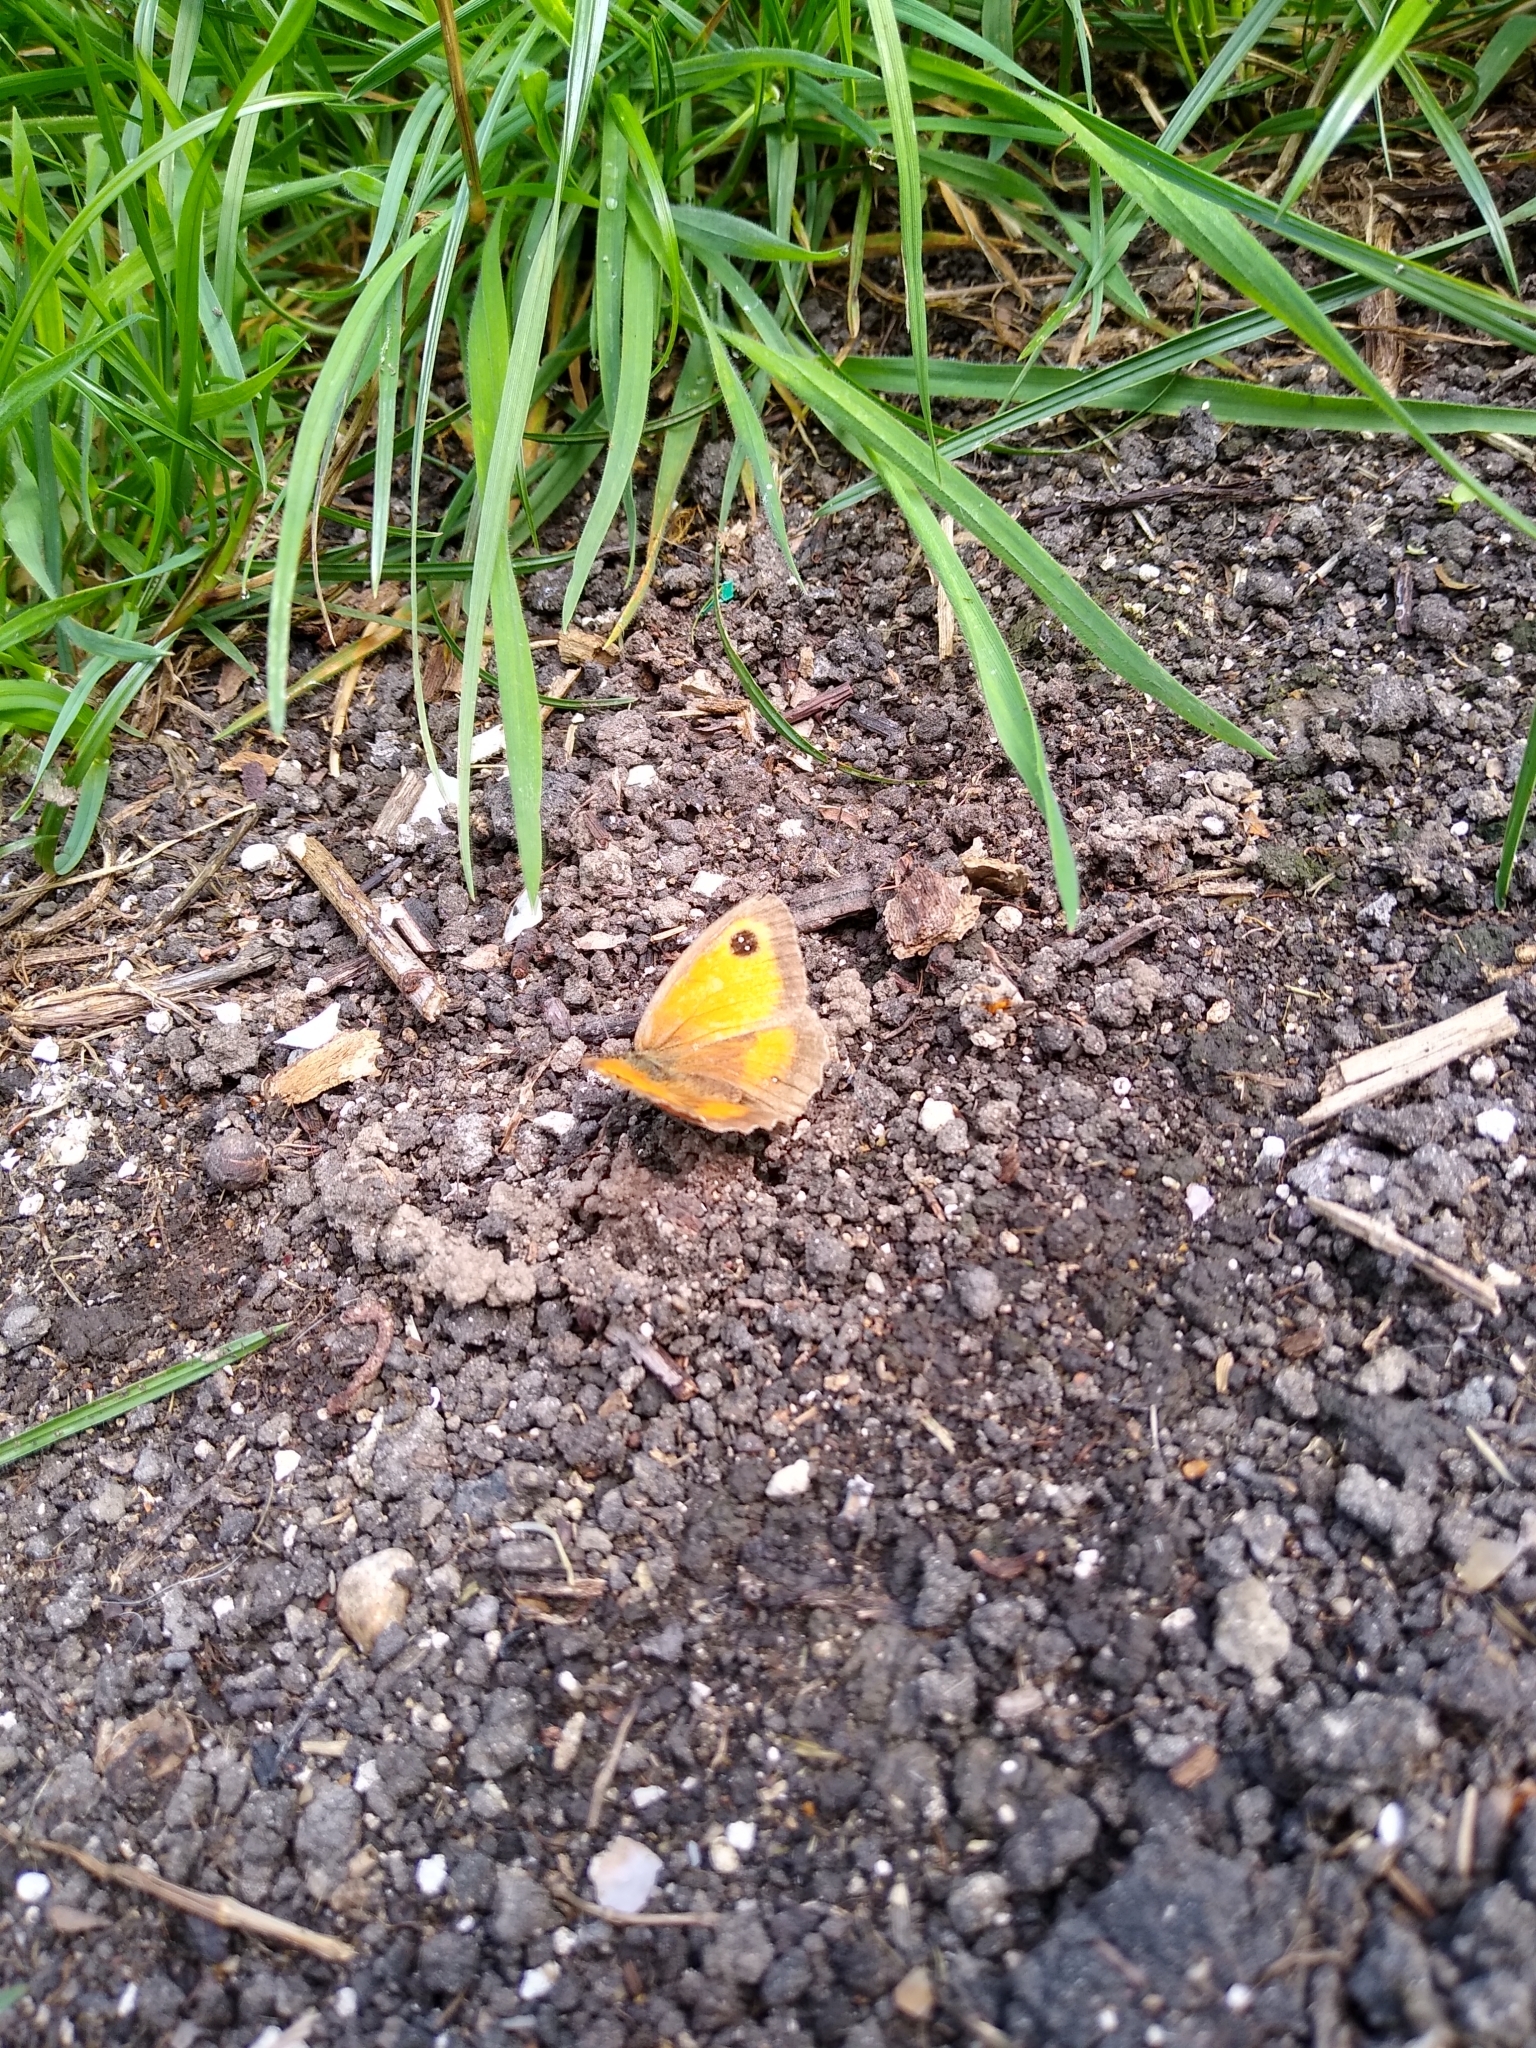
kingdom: Animalia
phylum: Arthropoda
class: Insecta
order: Lepidoptera
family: Nymphalidae
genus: Pyronia
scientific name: Pyronia tithonus
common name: Gatekeeper
